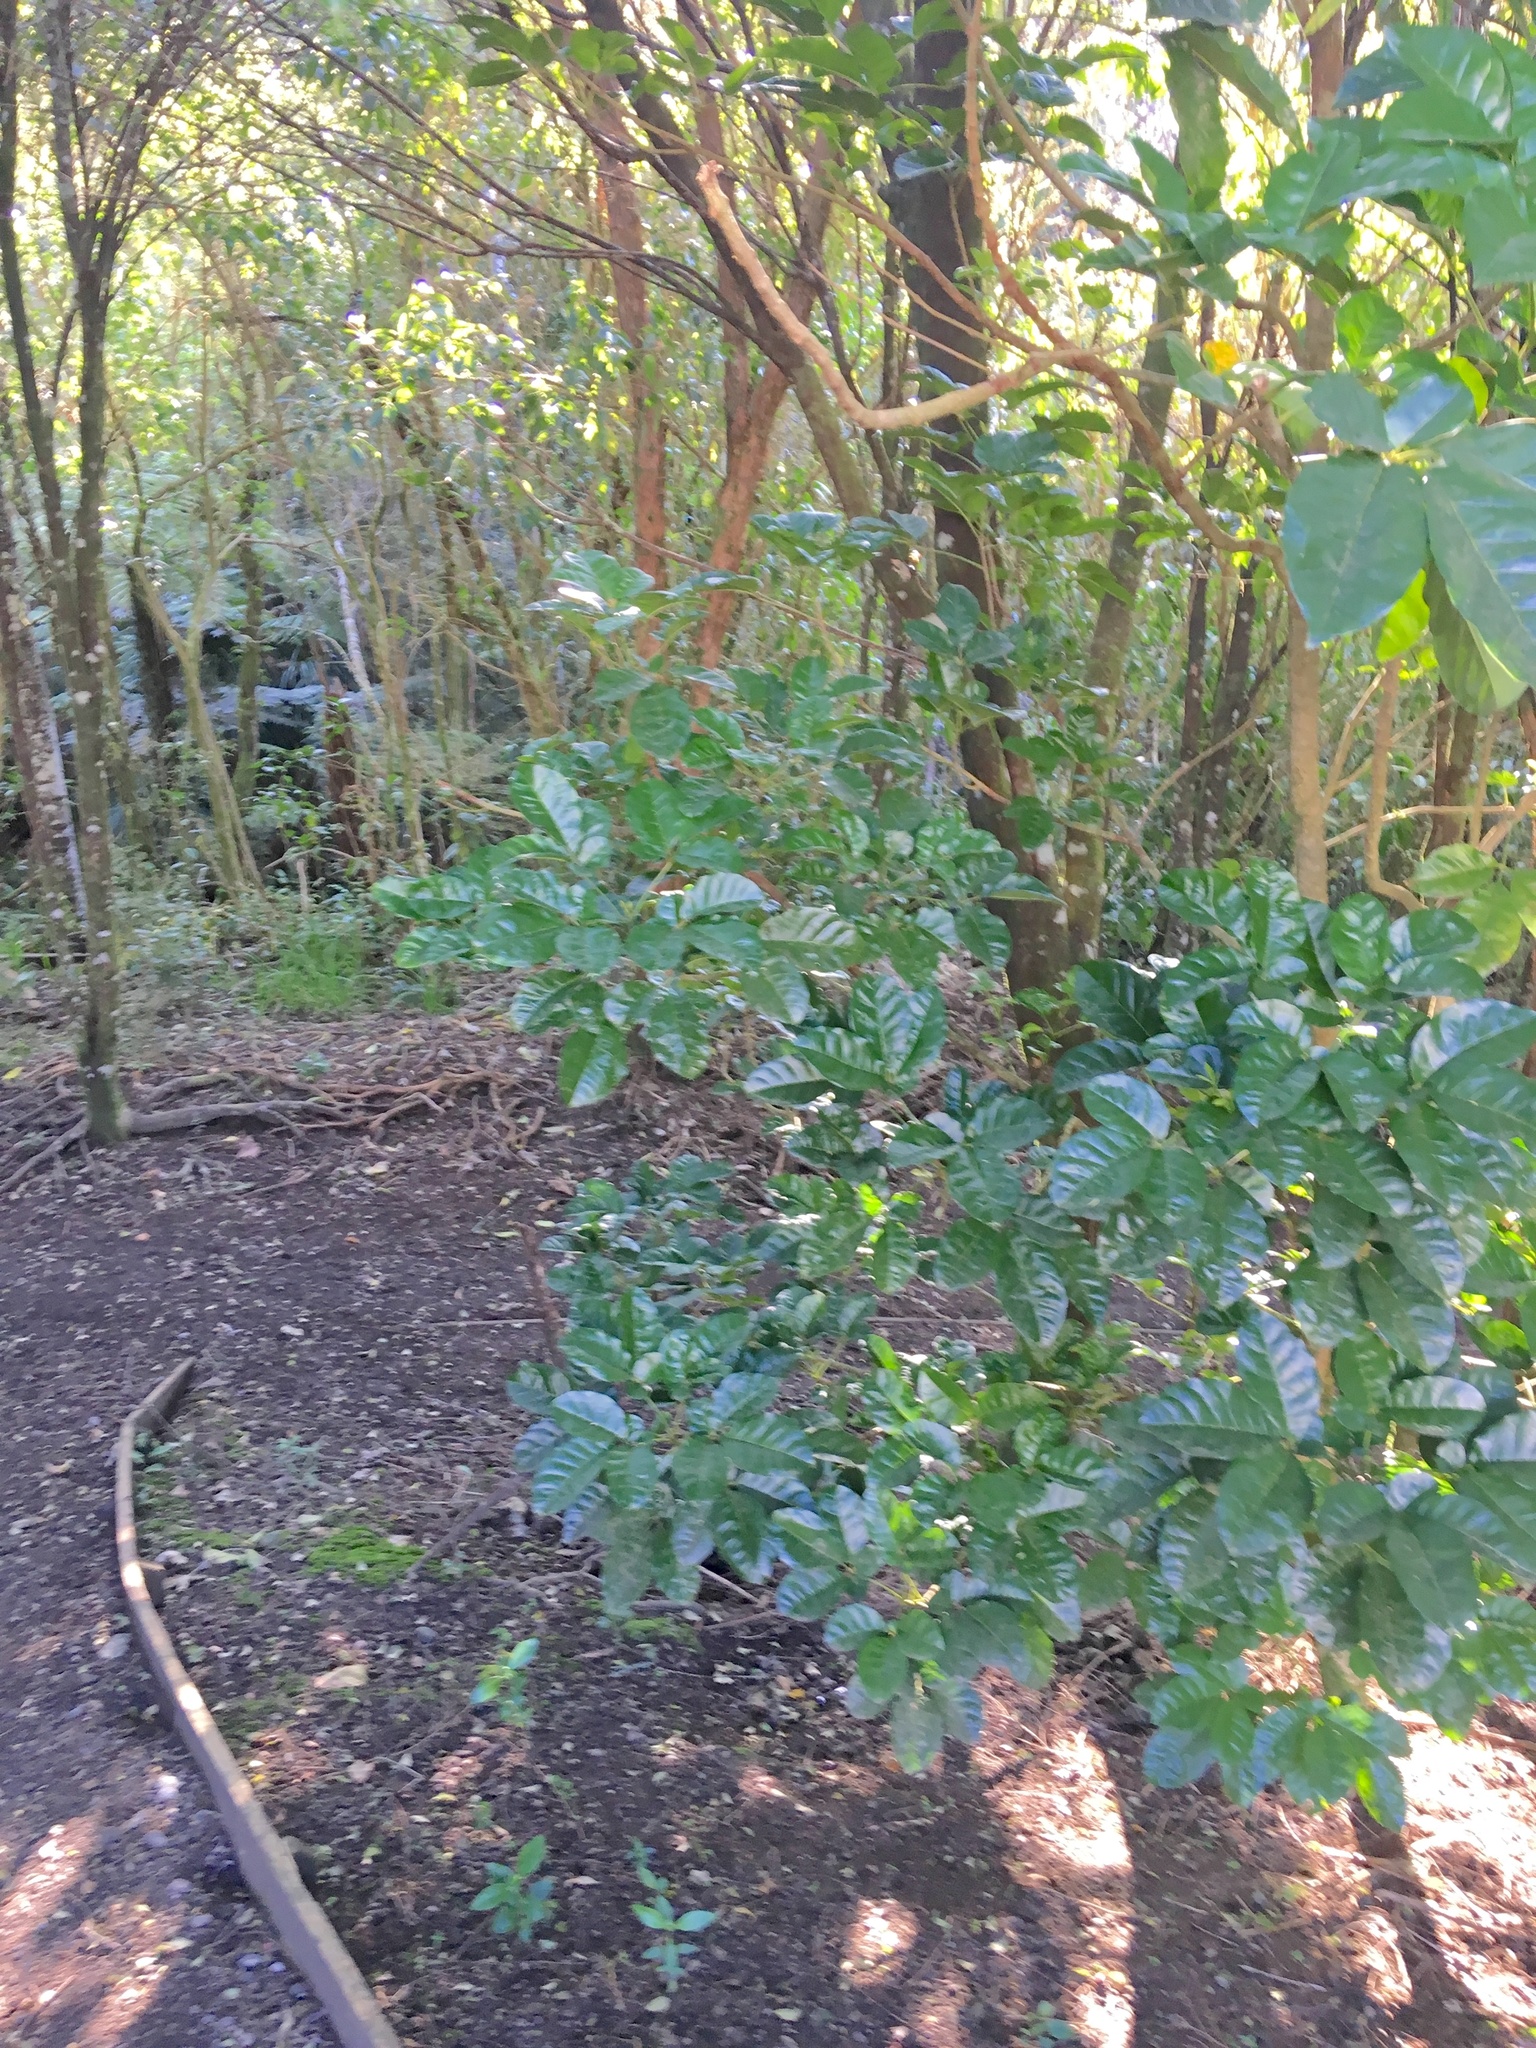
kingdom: Plantae
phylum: Tracheophyta
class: Magnoliopsida
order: Lamiales
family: Lamiaceae
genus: Vitex
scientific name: Vitex lucens
